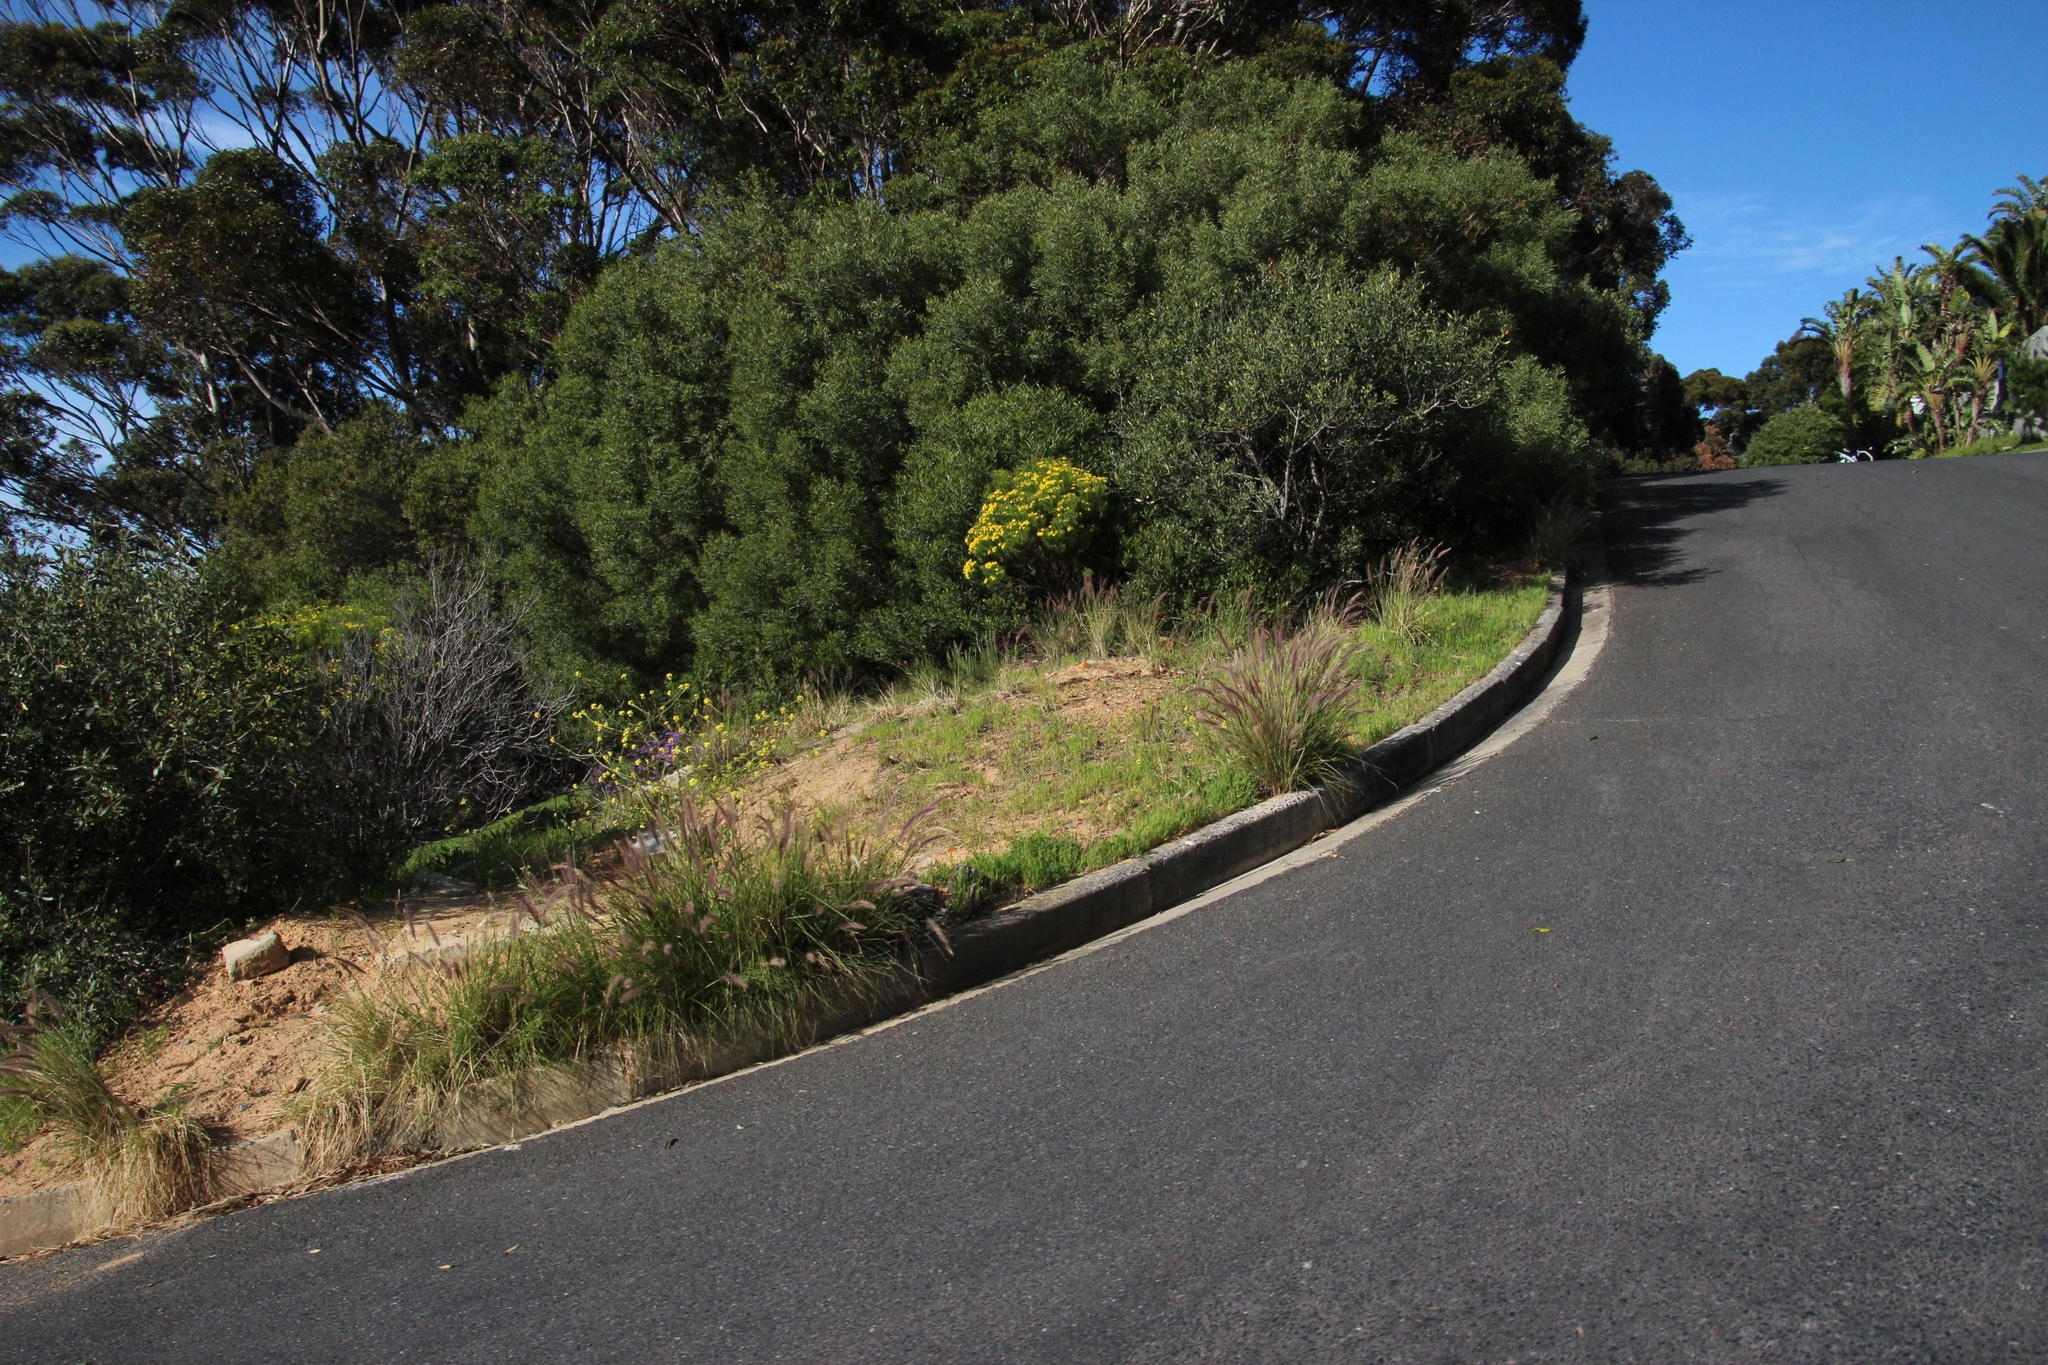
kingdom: Plantae
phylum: Tracheophyta
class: Liliopsida
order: Poales
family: Poaceae
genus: Cenchrus
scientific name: Cenchrus setaceus
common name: Crimson fountaingrass
